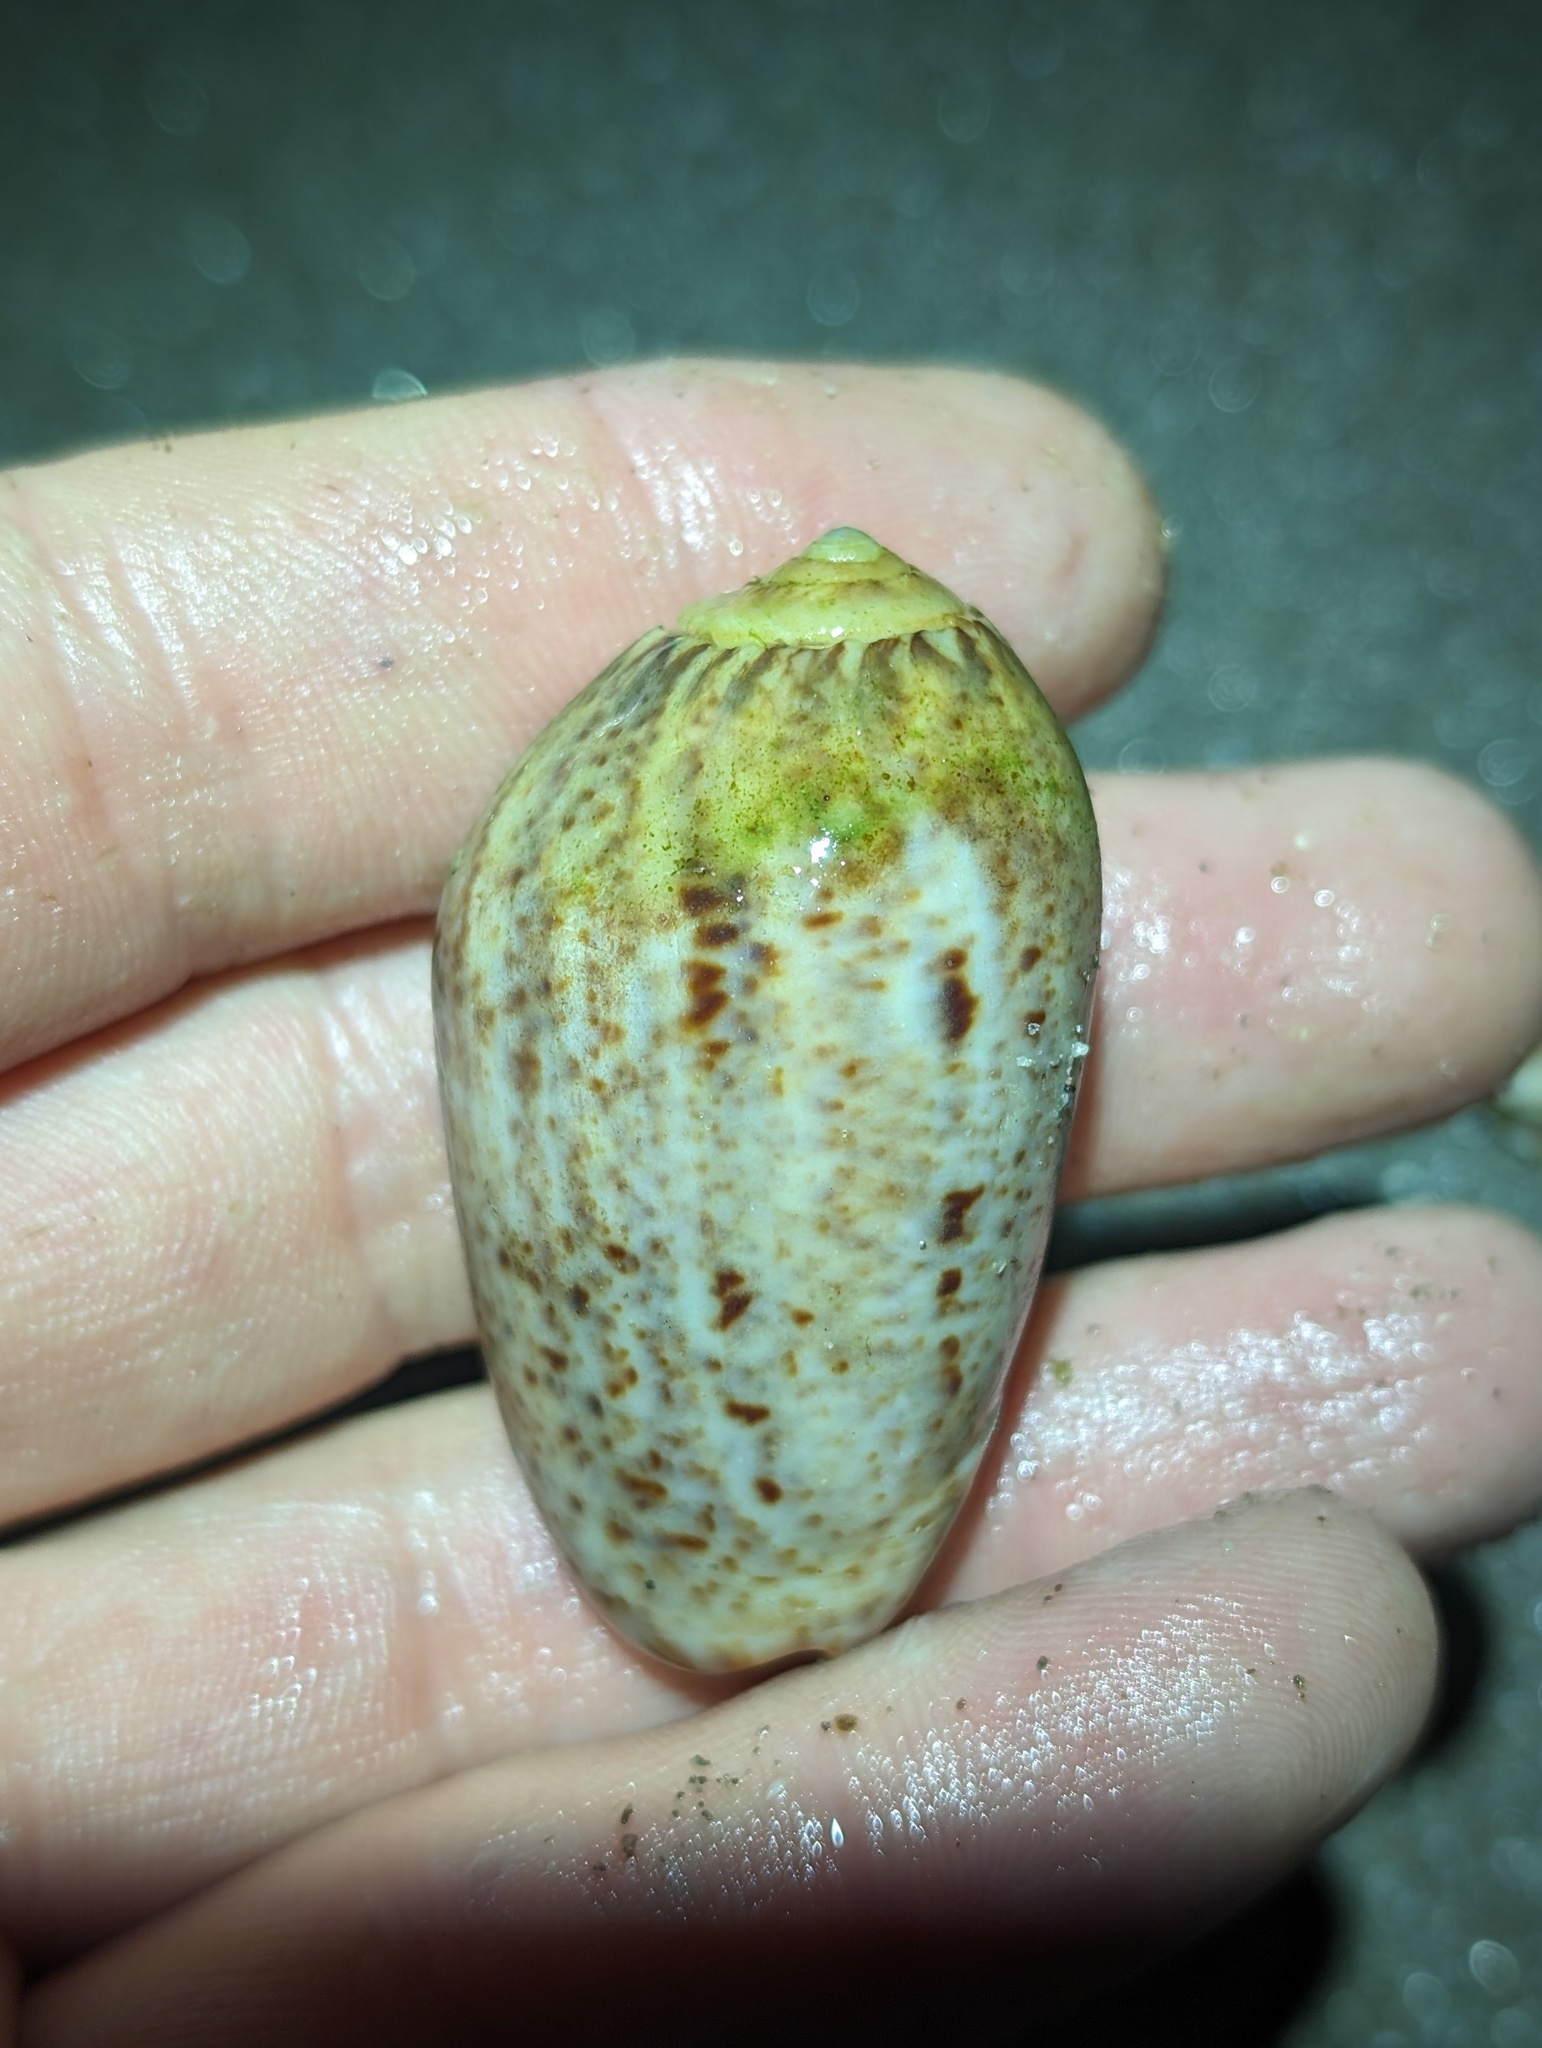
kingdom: Animalia
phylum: Mollusca
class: Gastropoda
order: Neogastropoda
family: Olividae
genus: Oliva
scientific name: Oliva incrassata
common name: Angled olive
